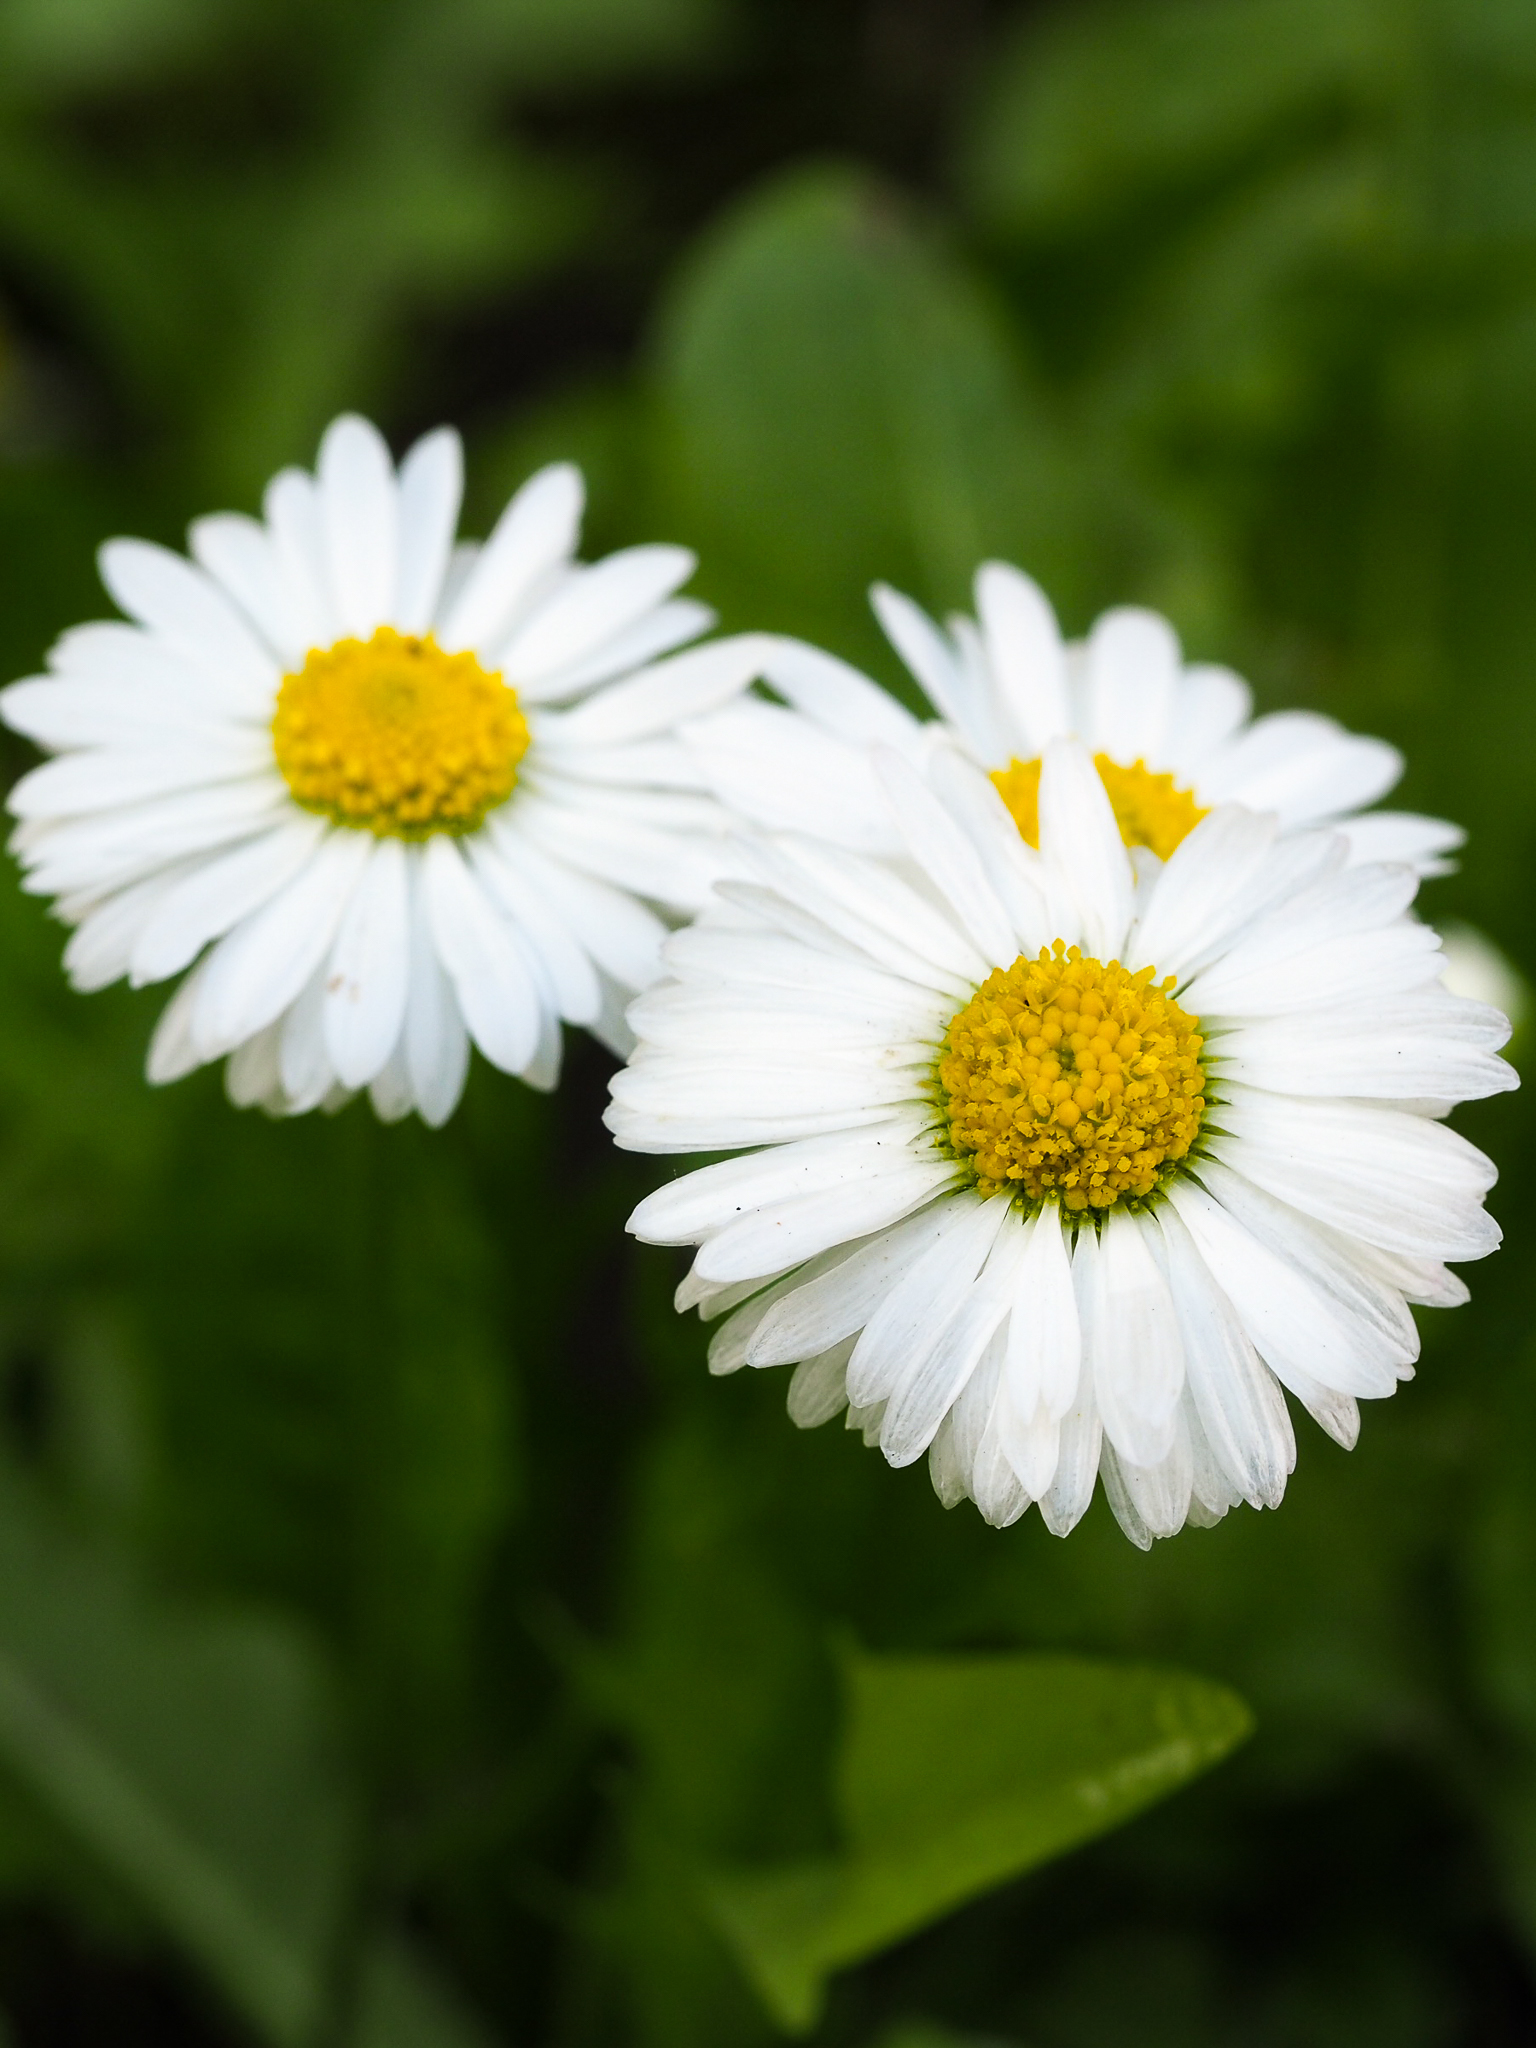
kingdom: Plantae
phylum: Tracheophyta
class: Magnoliopsida
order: Asterales
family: Asteraceae
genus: Bellis
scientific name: Bellis perennis
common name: Lawndaisy
